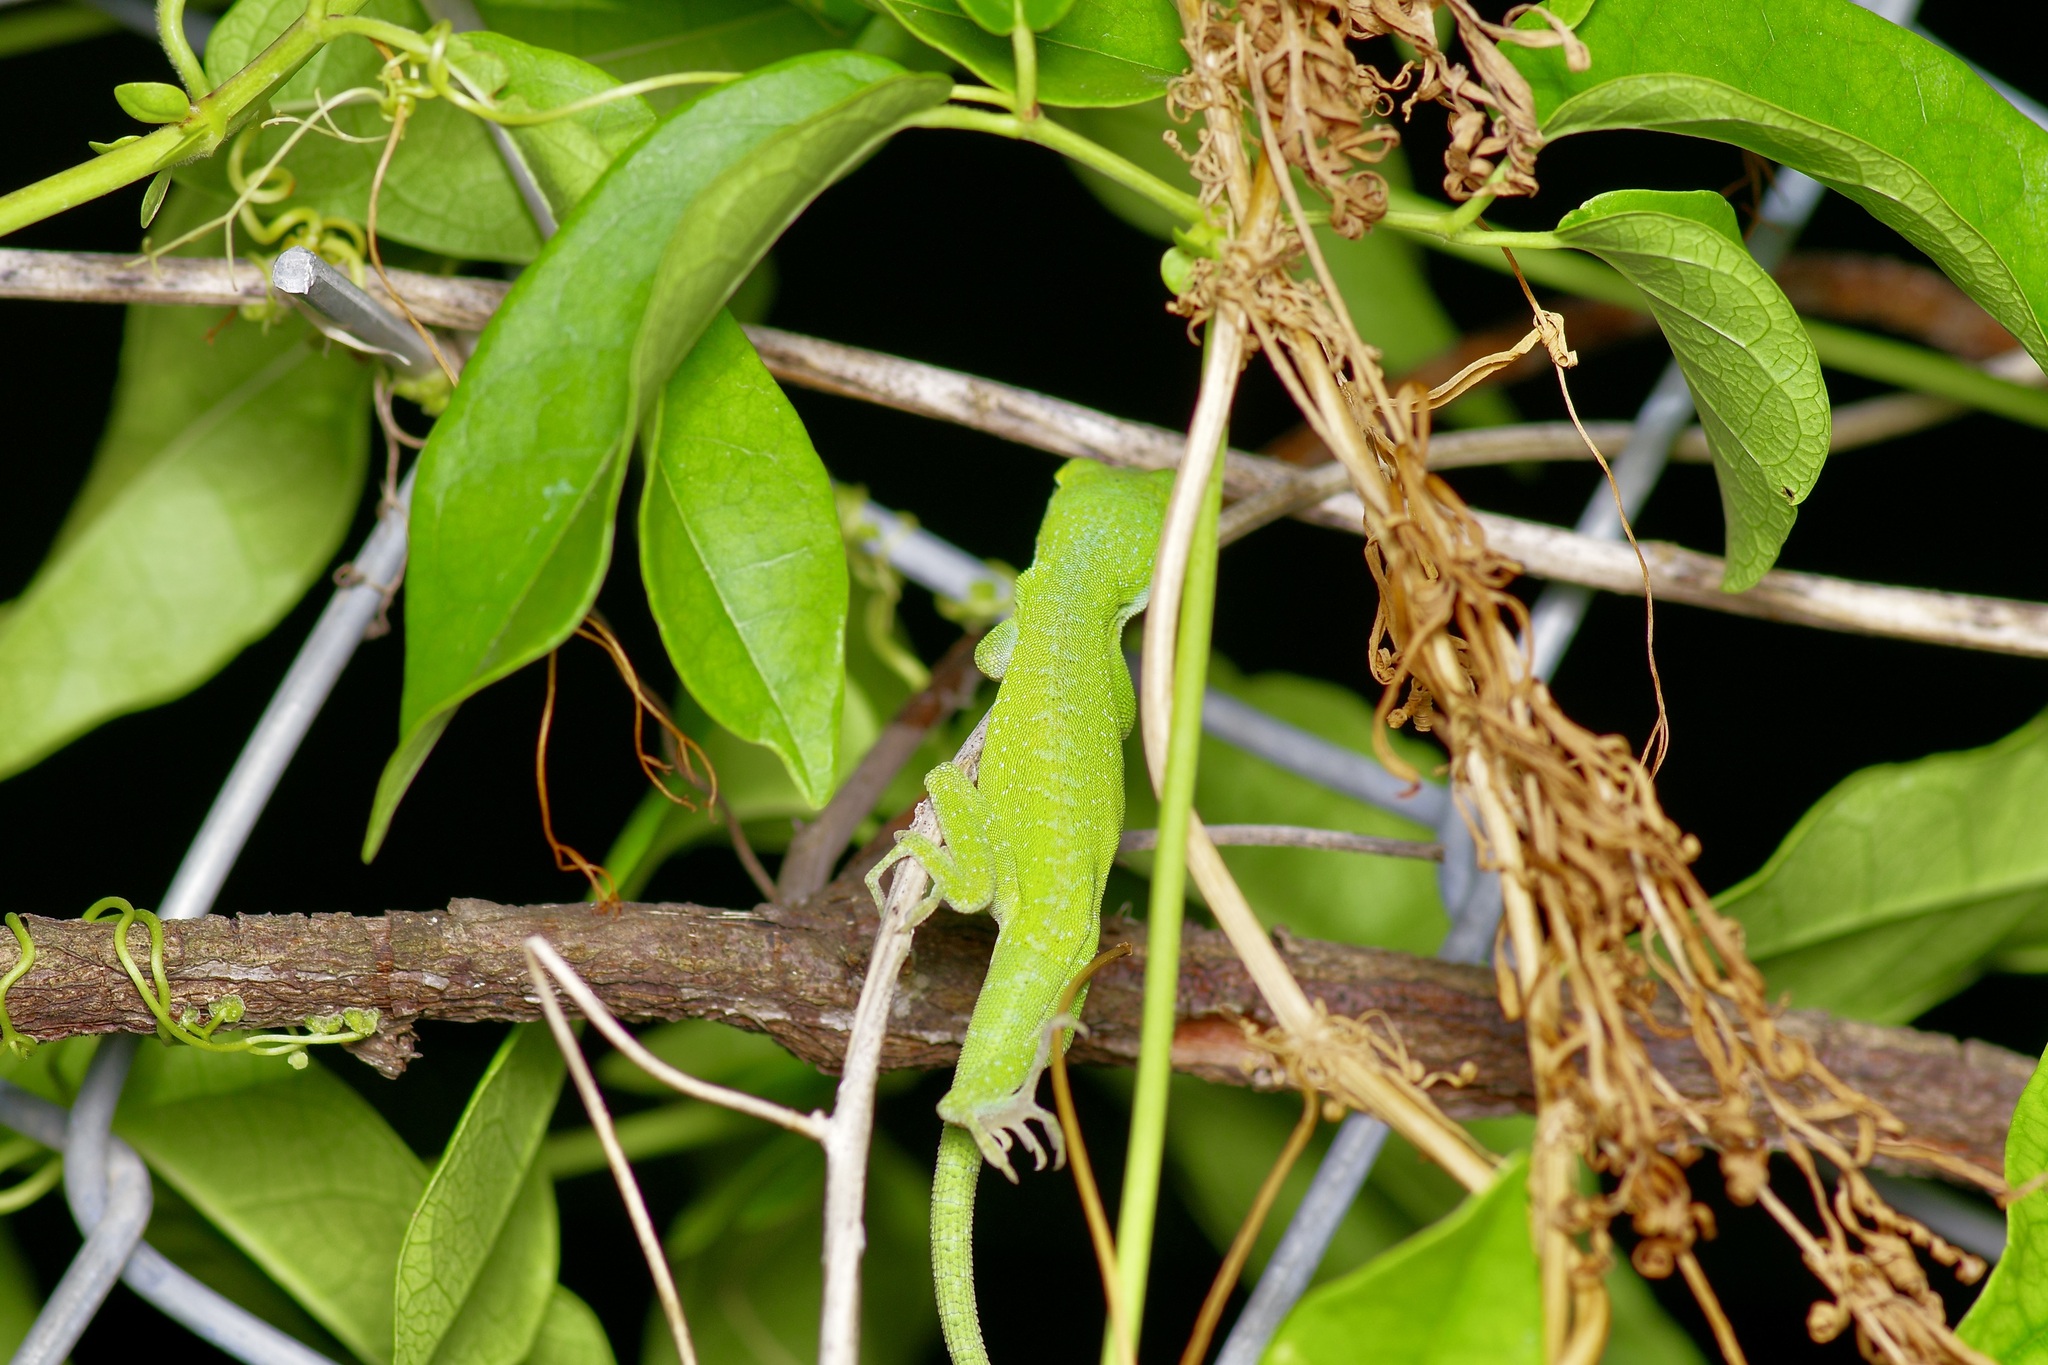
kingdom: Animalia
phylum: Chordata
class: Squamata
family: Dactyloidae
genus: Anolis
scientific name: Anolis carolinensis
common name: Green anole
